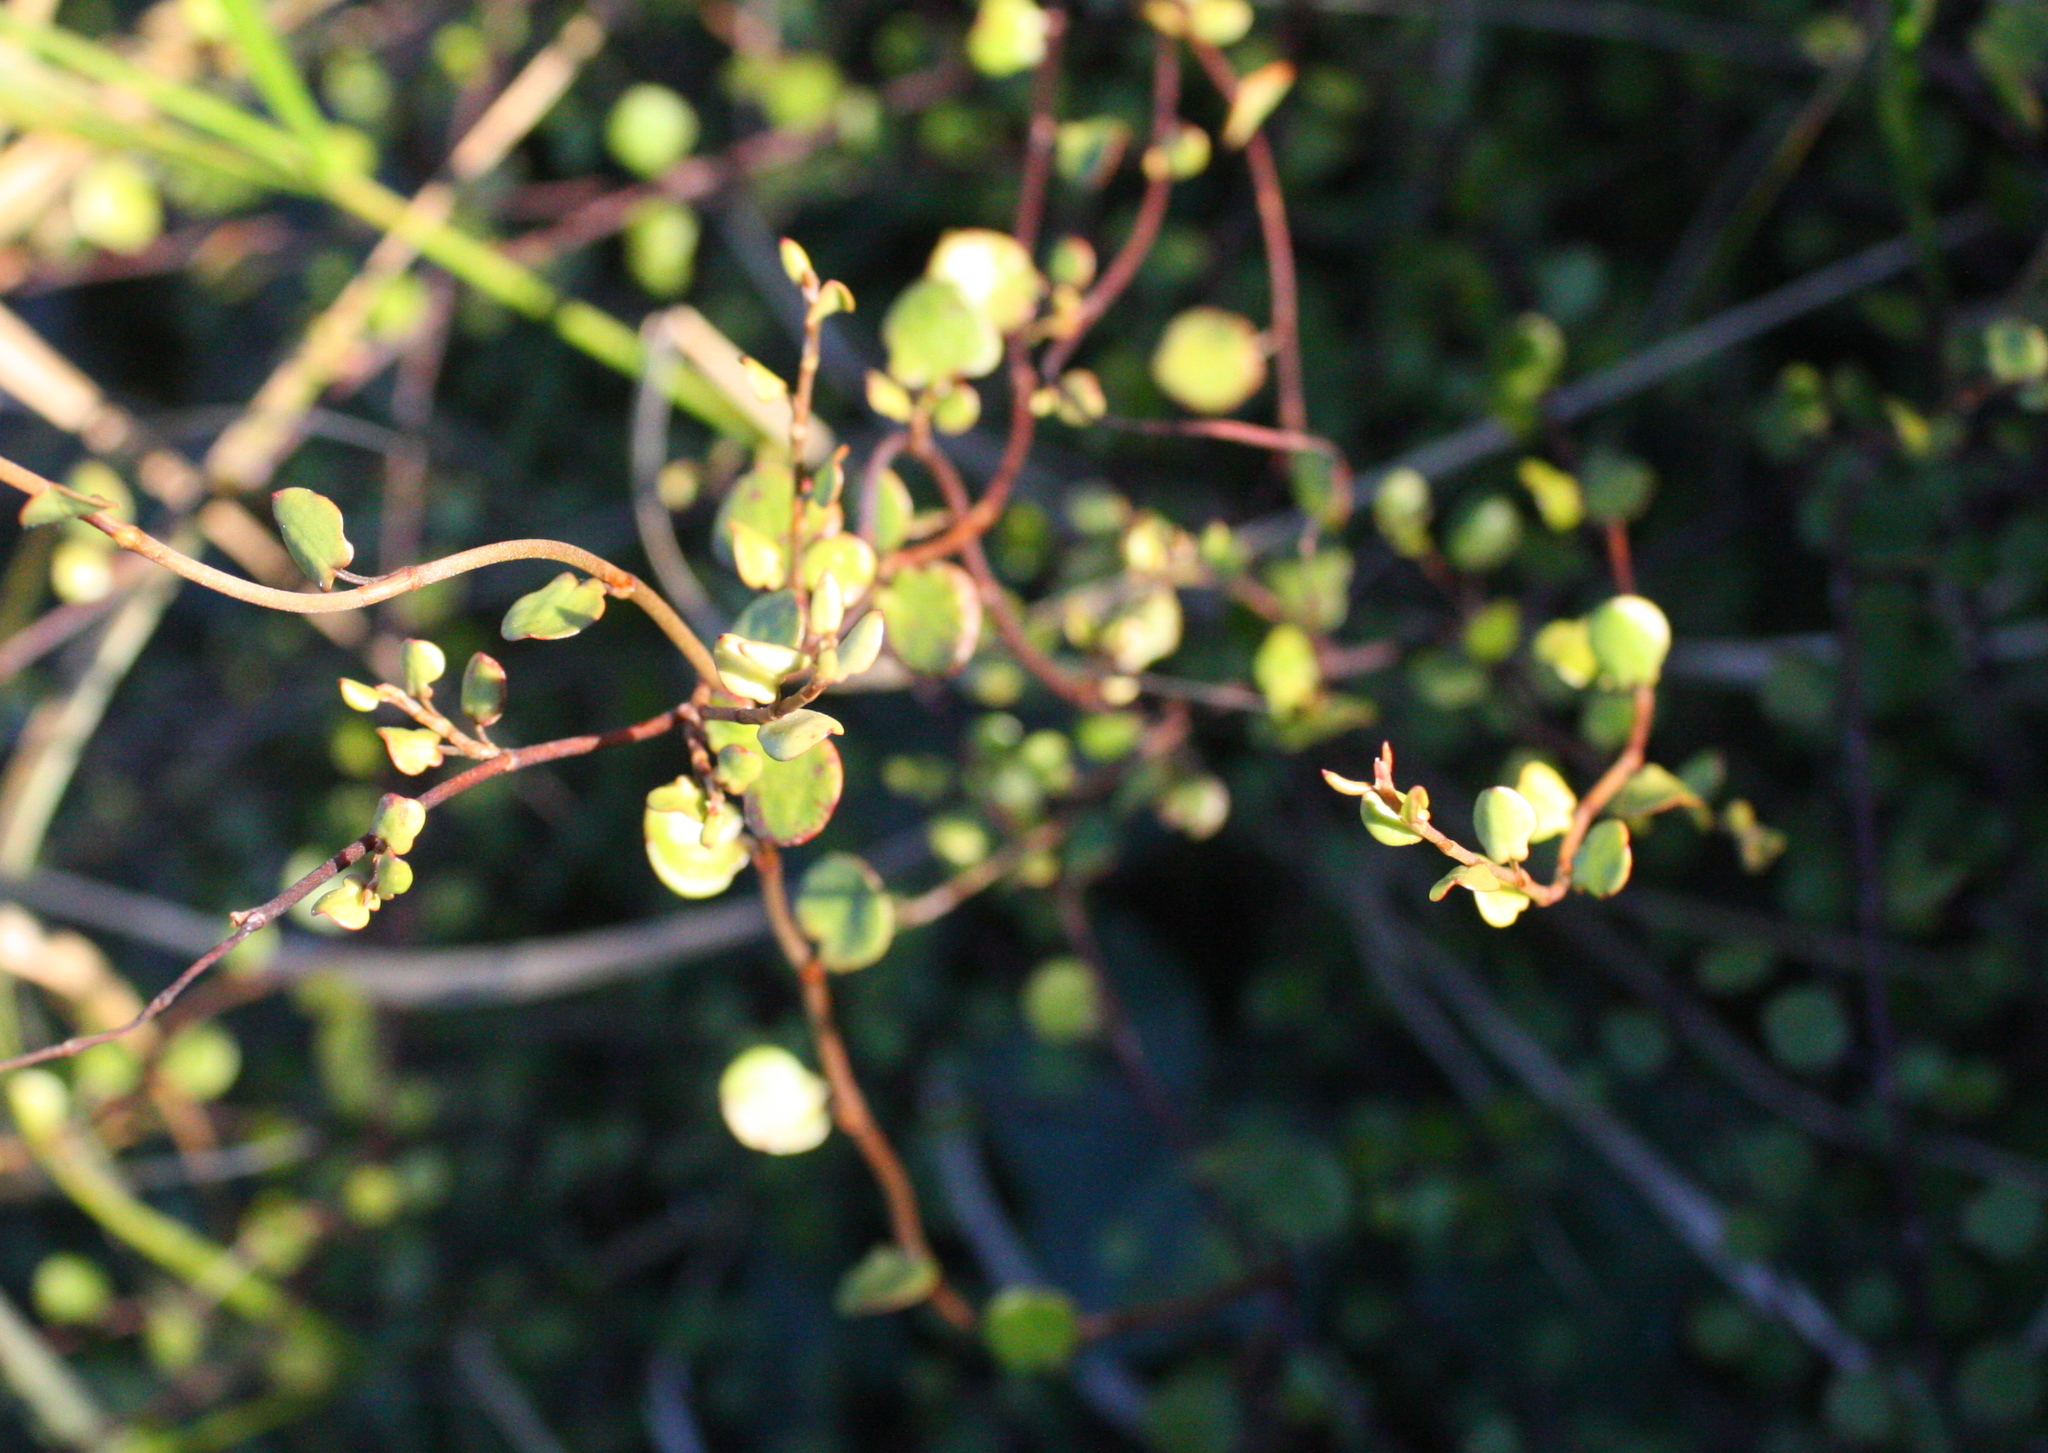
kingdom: Plantae
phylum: Tracheophyta
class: Magnoliopsida
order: Caryophyllales
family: Polygonaceae
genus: Muehlenbeckia
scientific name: Muehlenbeckia complexa
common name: Wireplant
